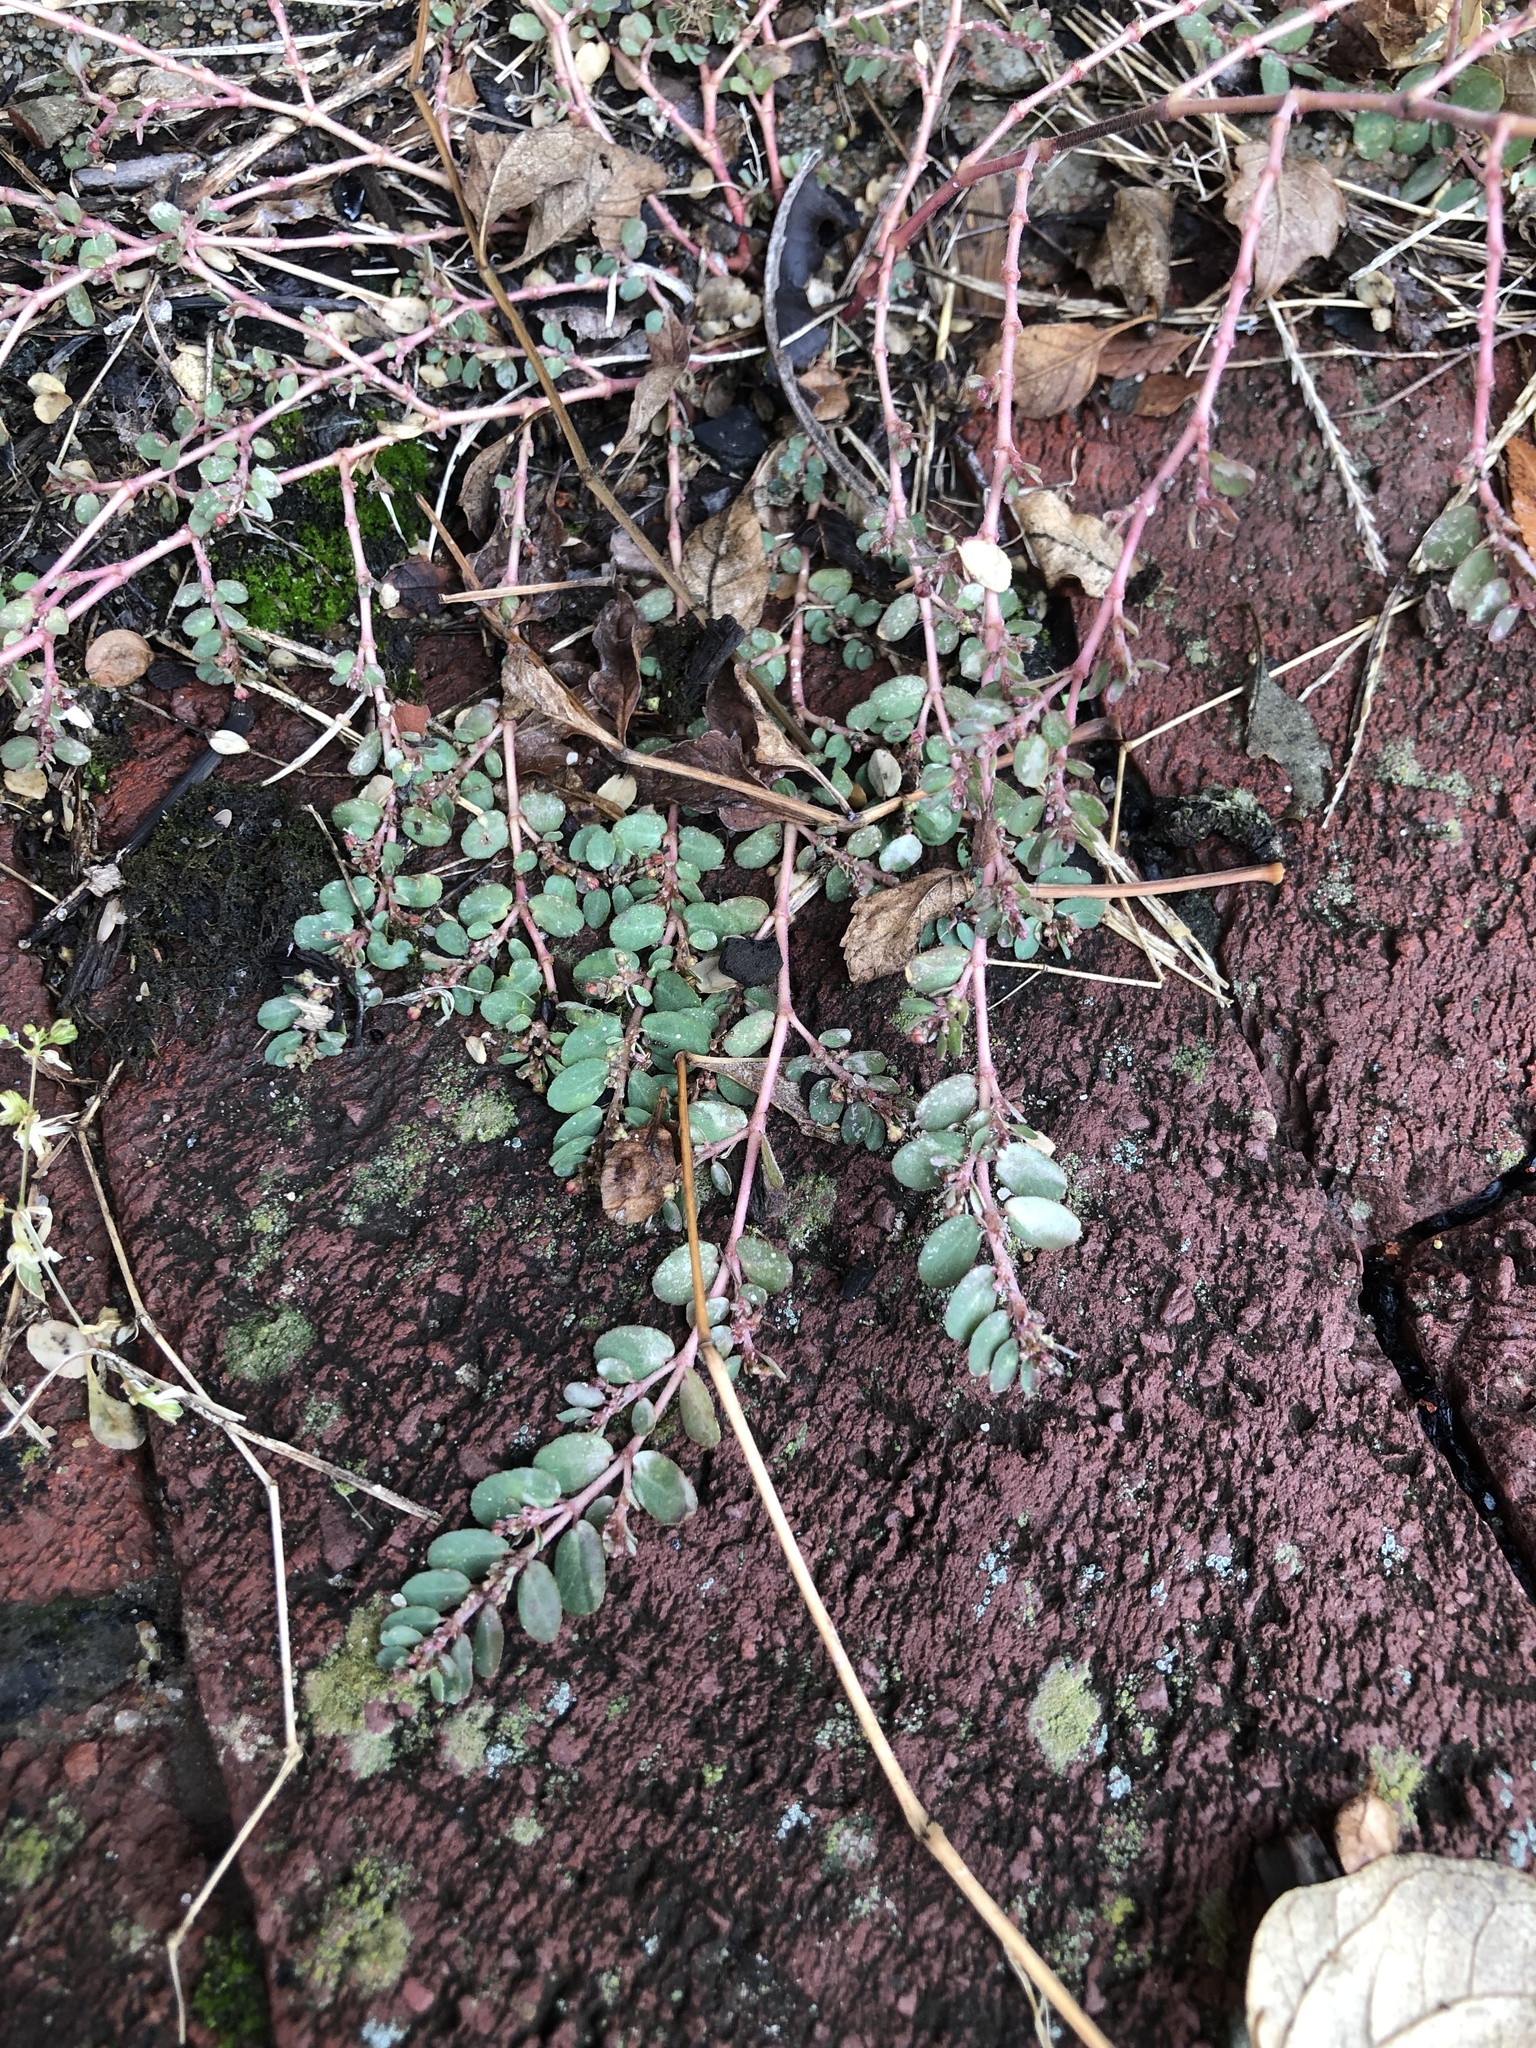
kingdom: Plantae
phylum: Tracheophyta
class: Magnoliopsida
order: Malpighiales
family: Euphorbiaceae
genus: Euphorbia
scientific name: Euphorbia prostrata
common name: Prostrate sandmat
